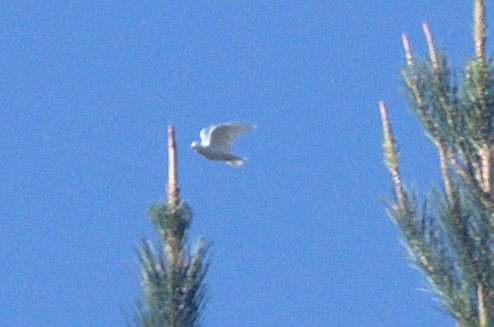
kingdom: Animalia
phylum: Chordata
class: Aves
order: Columbiformes
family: Columbidae
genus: Columba
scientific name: Columba livia
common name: Rock pigeon
